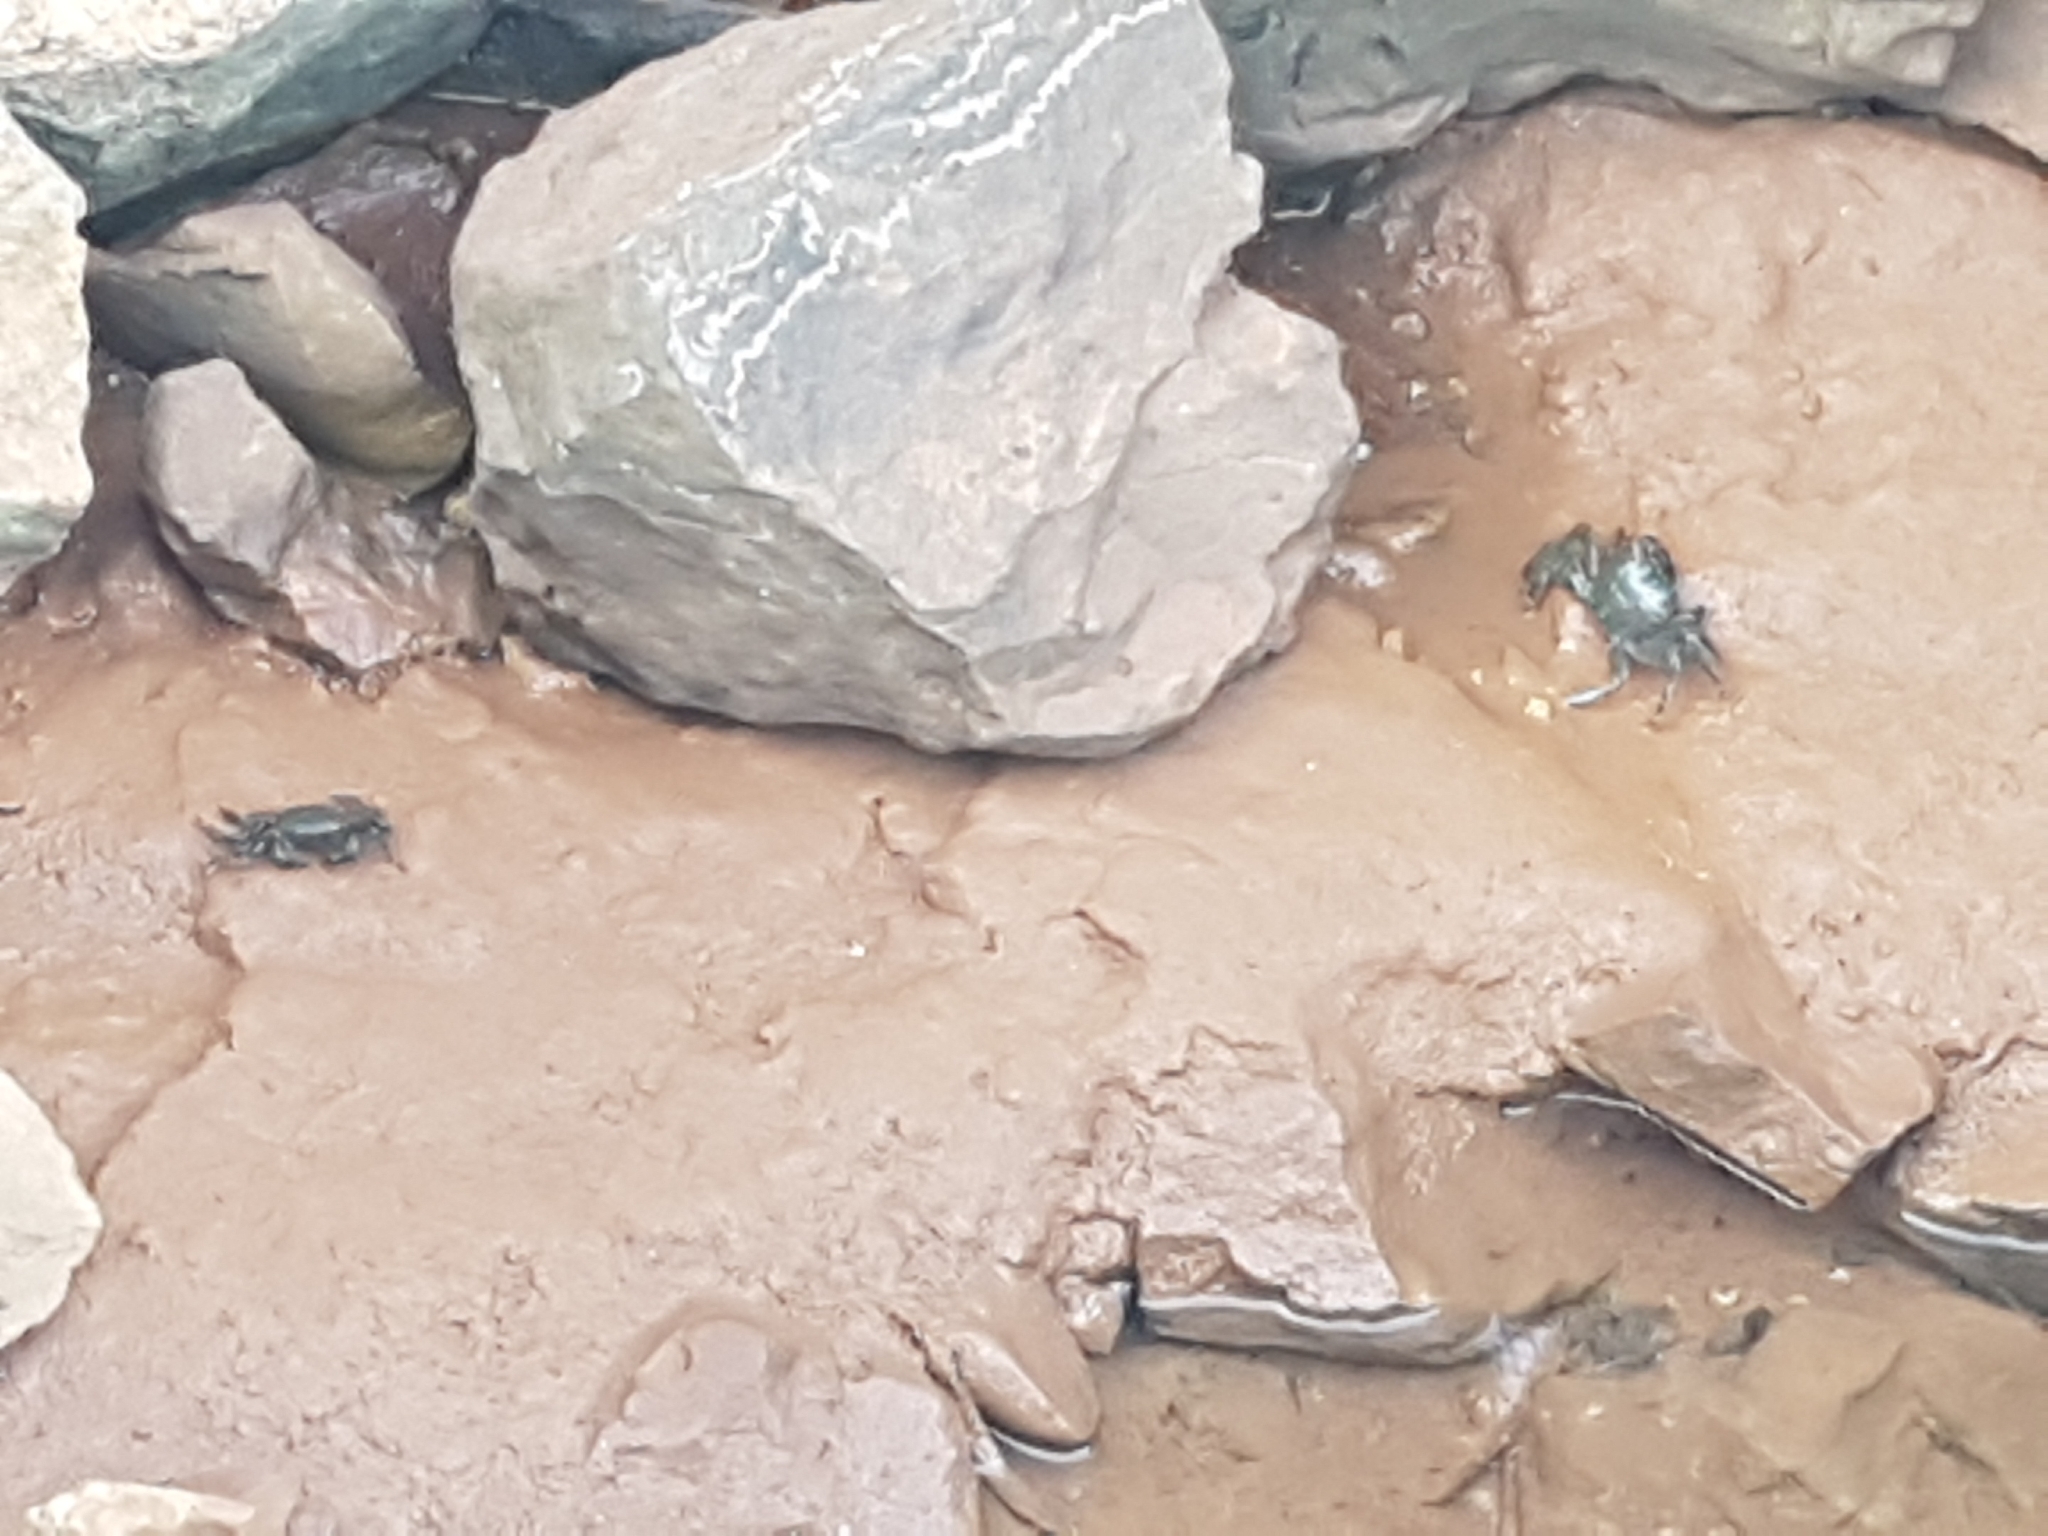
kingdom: Animalia
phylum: Arthropoda
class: Malacostraca
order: Decapoda
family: Grapsidae
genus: Pachygrapsus
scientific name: Pachygrapsus marmoratus
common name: Marbled rock crab
